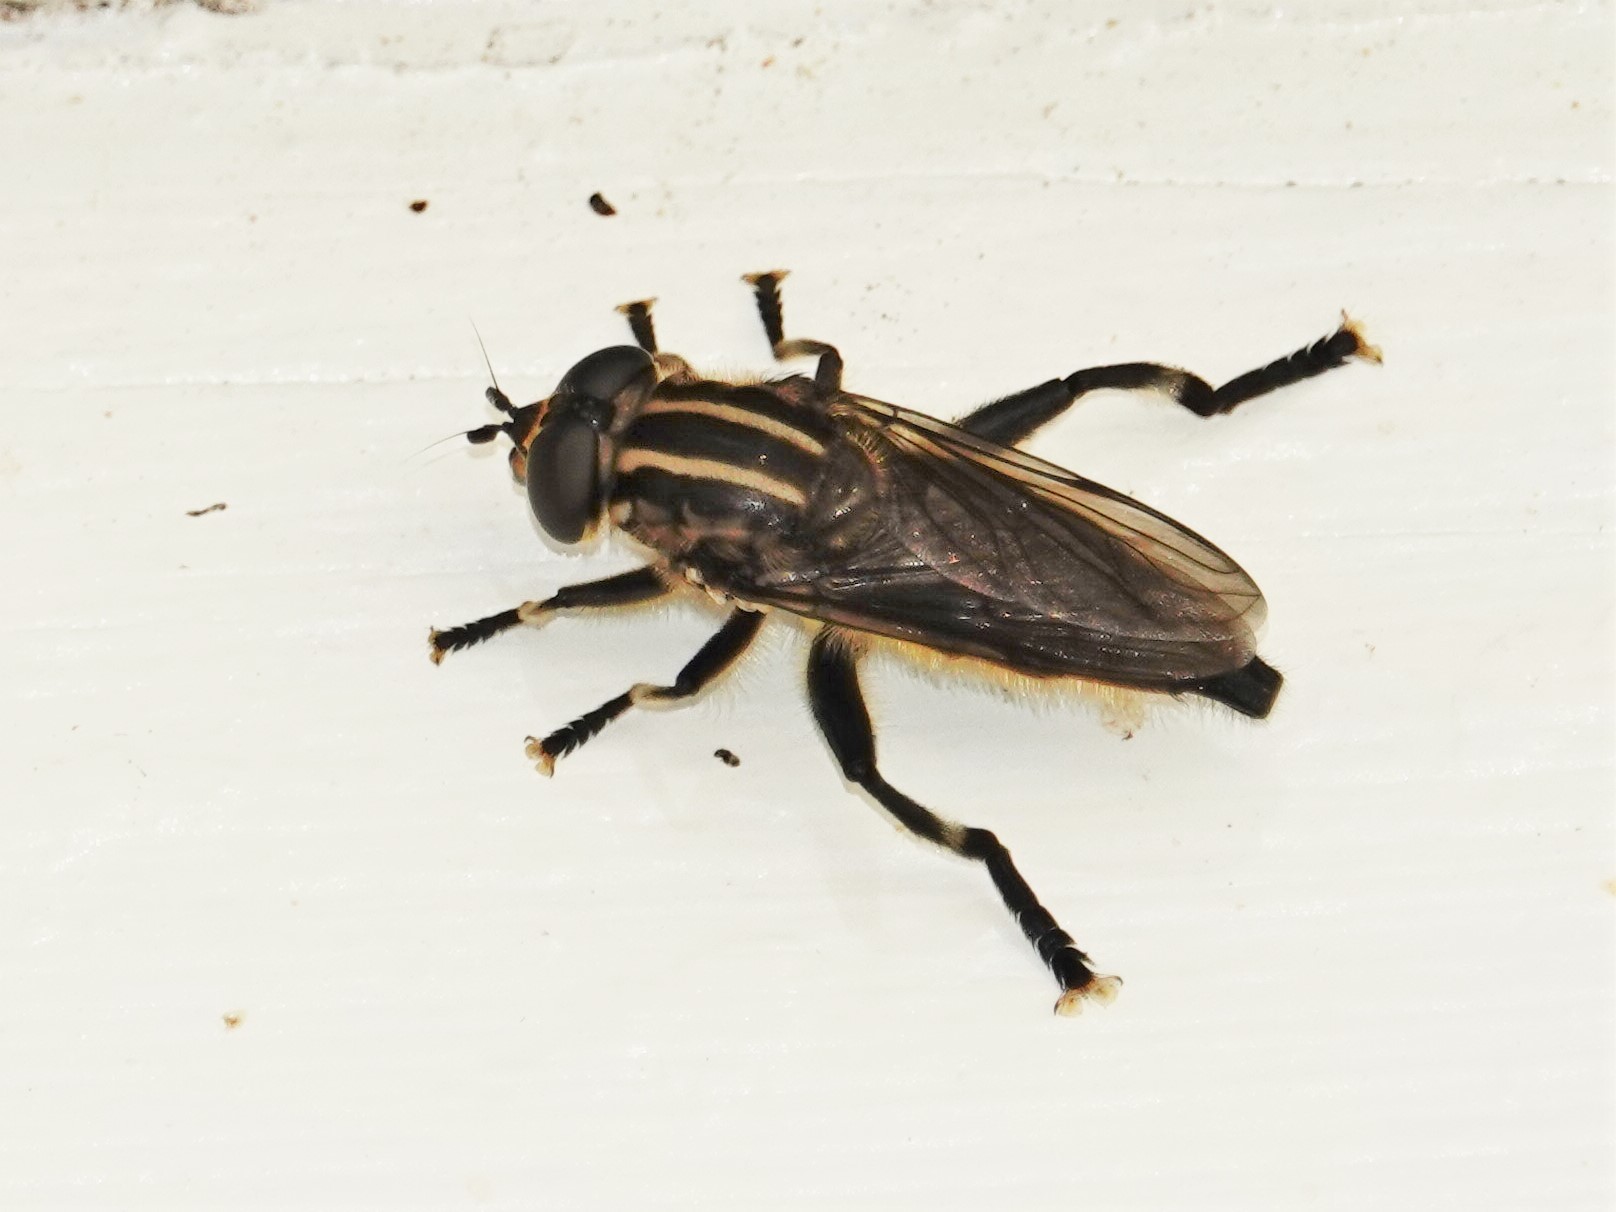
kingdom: Animalia
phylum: Arthropoda
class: Insecta
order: Diptera
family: Syrphidae
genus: Orthoprosopa
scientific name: Orthoprosopa bilineata
